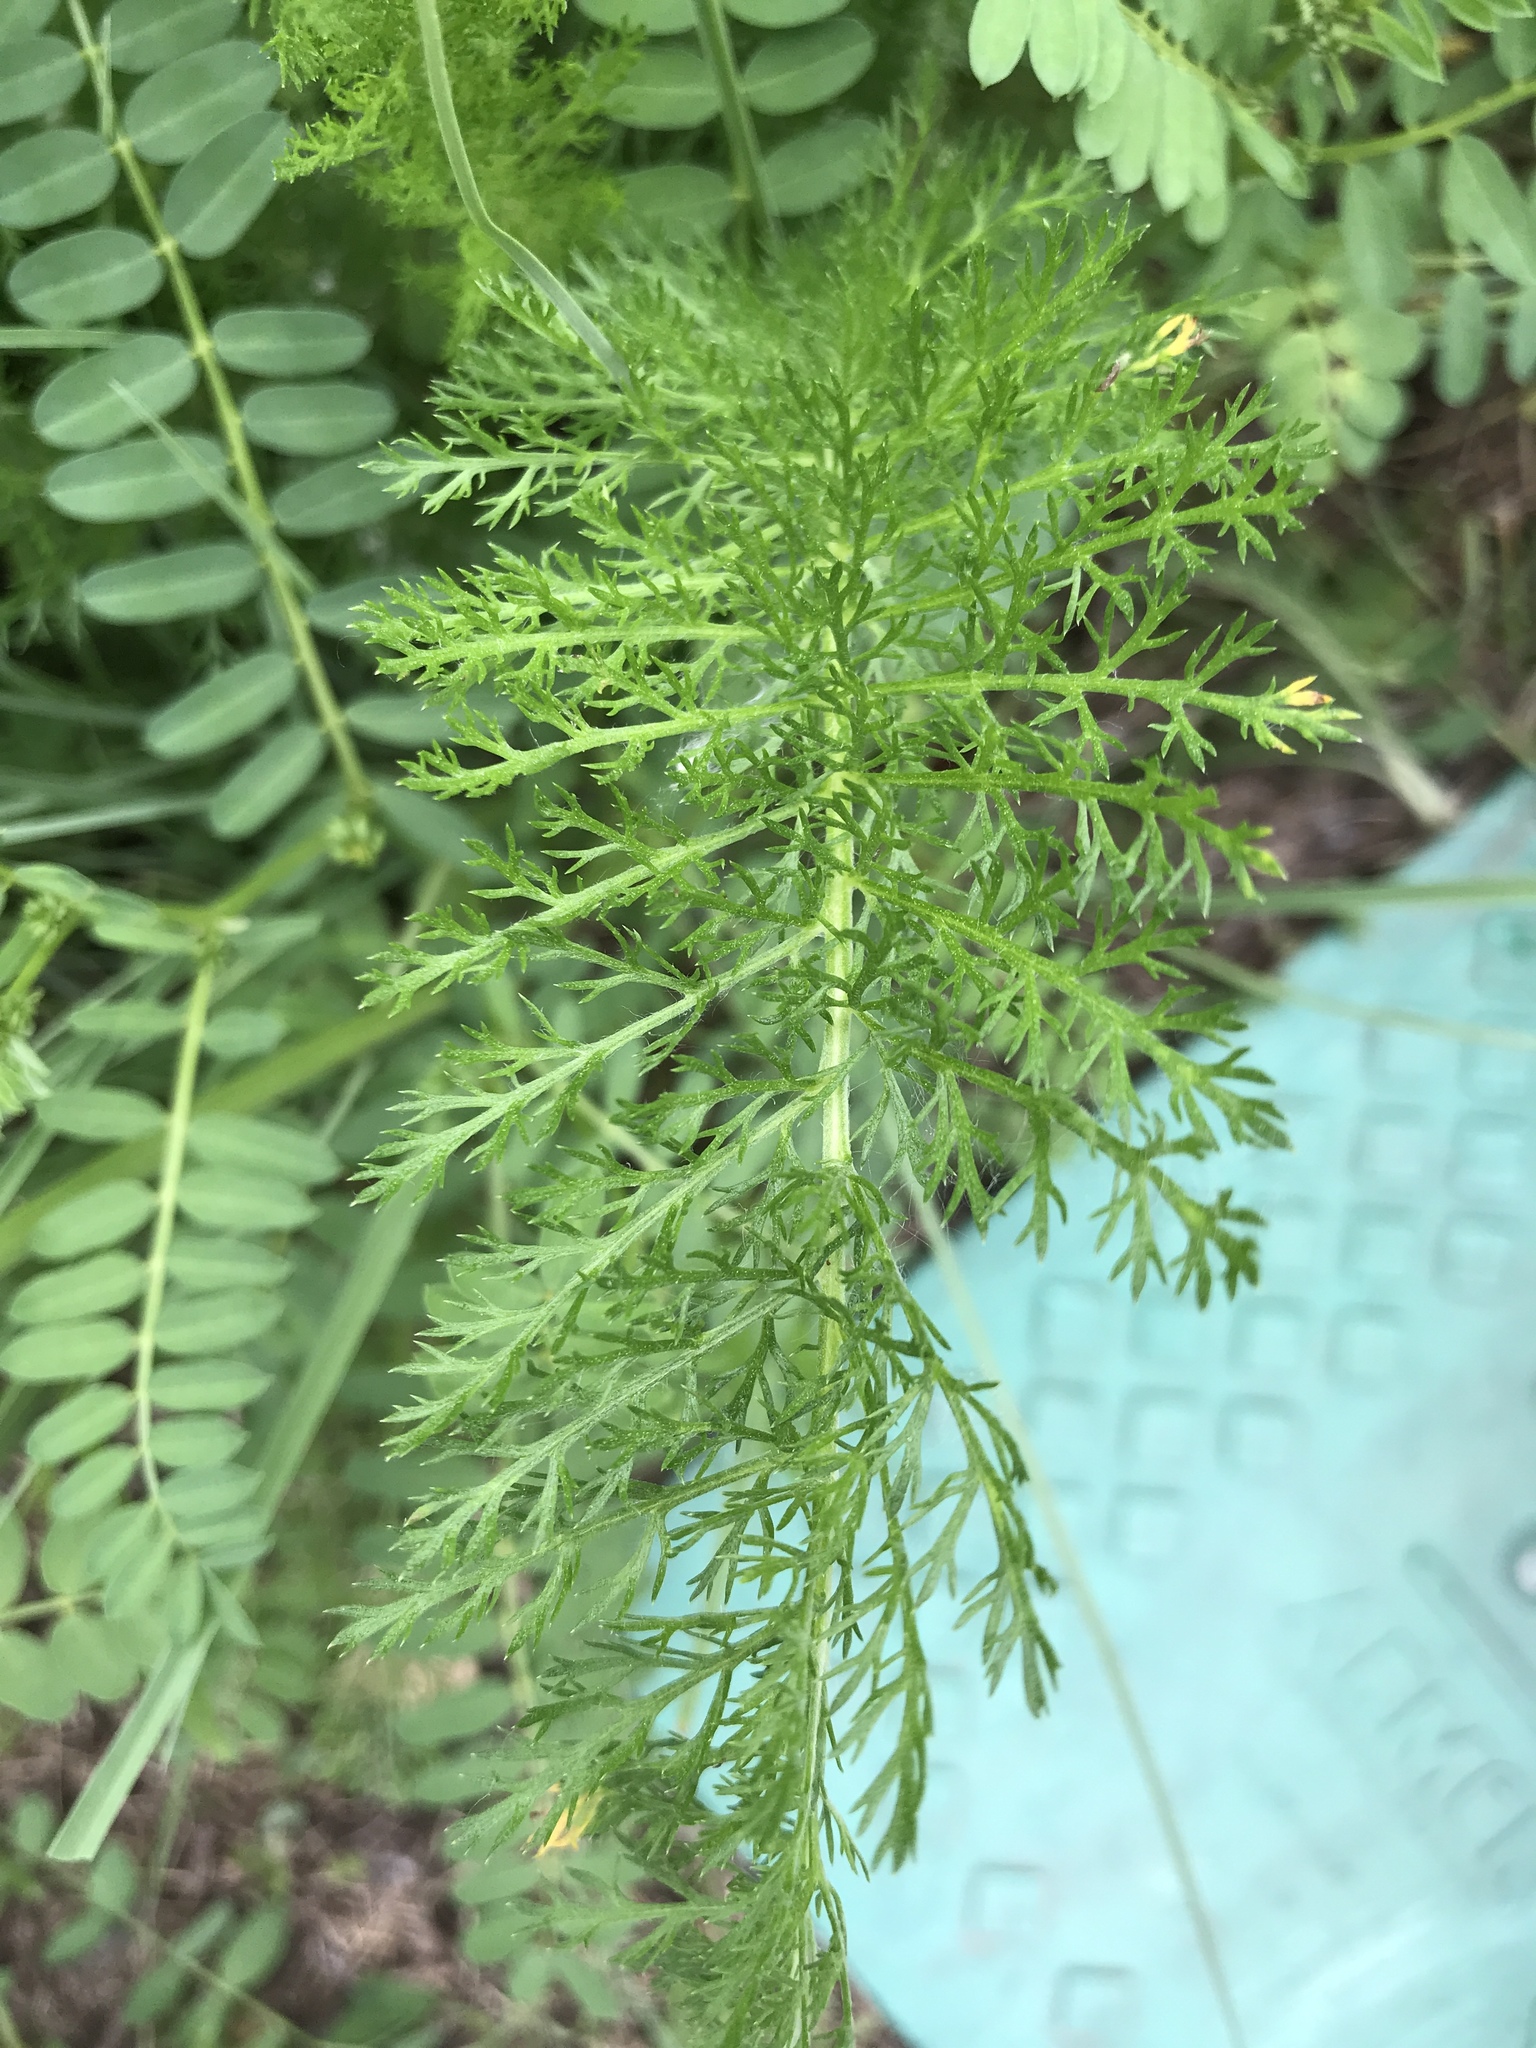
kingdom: Plantae
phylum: Tracheophyta
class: Magnoliopsida
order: Asterales
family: Asteraceae
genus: Achillea
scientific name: Achillea millefolium
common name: Yarrow
